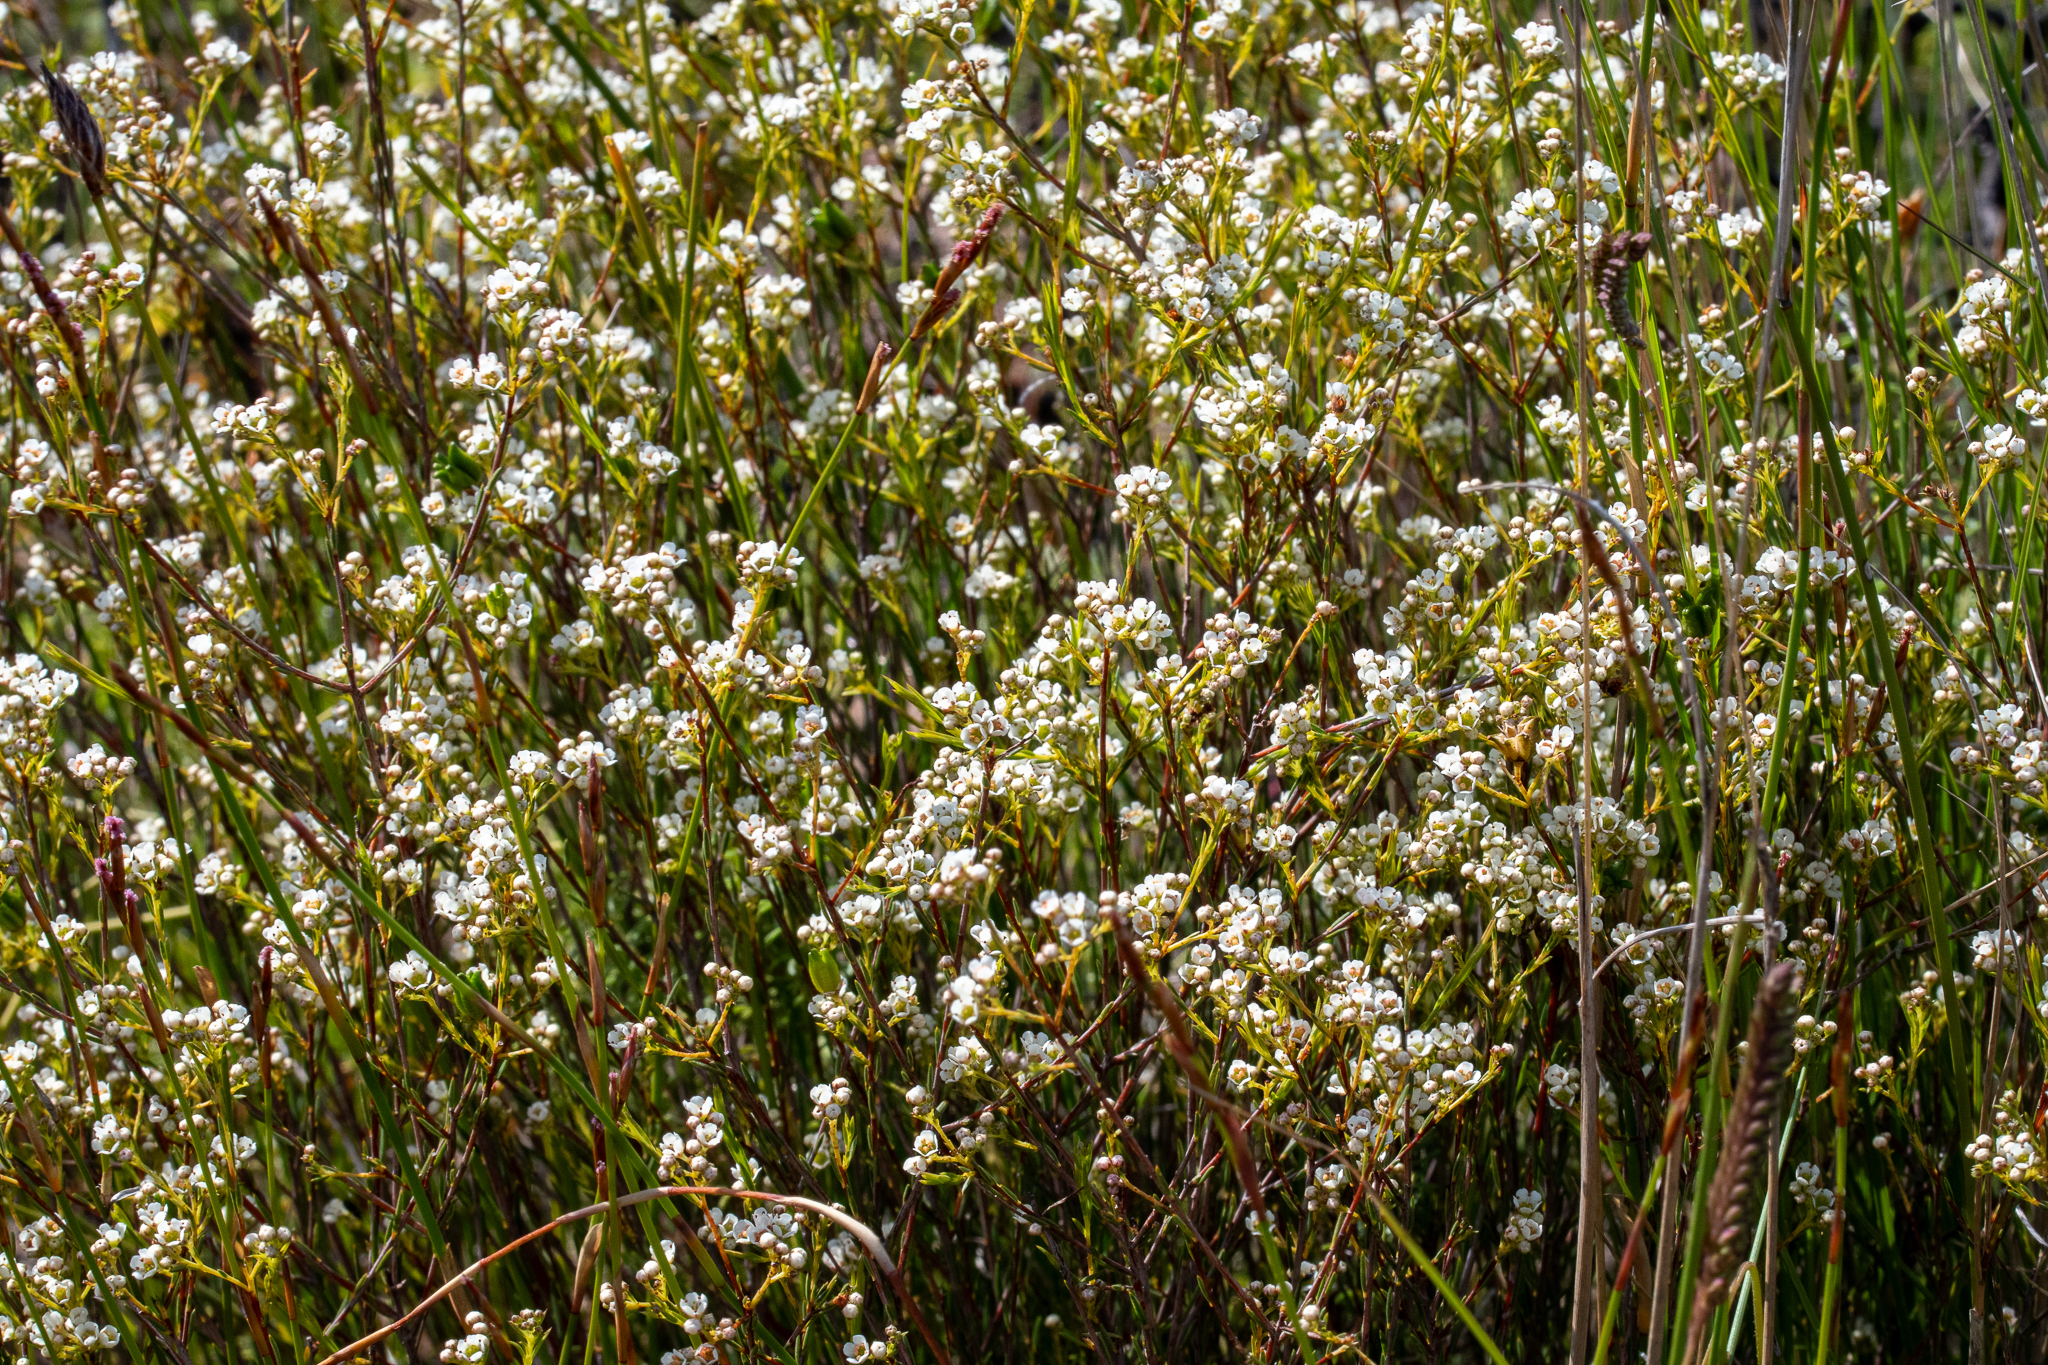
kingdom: Plantae
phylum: Tracheophyta
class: Magnoliopsida
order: Sapindales
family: Rutaceae
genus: Diosma
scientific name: Diosma hirsuta
